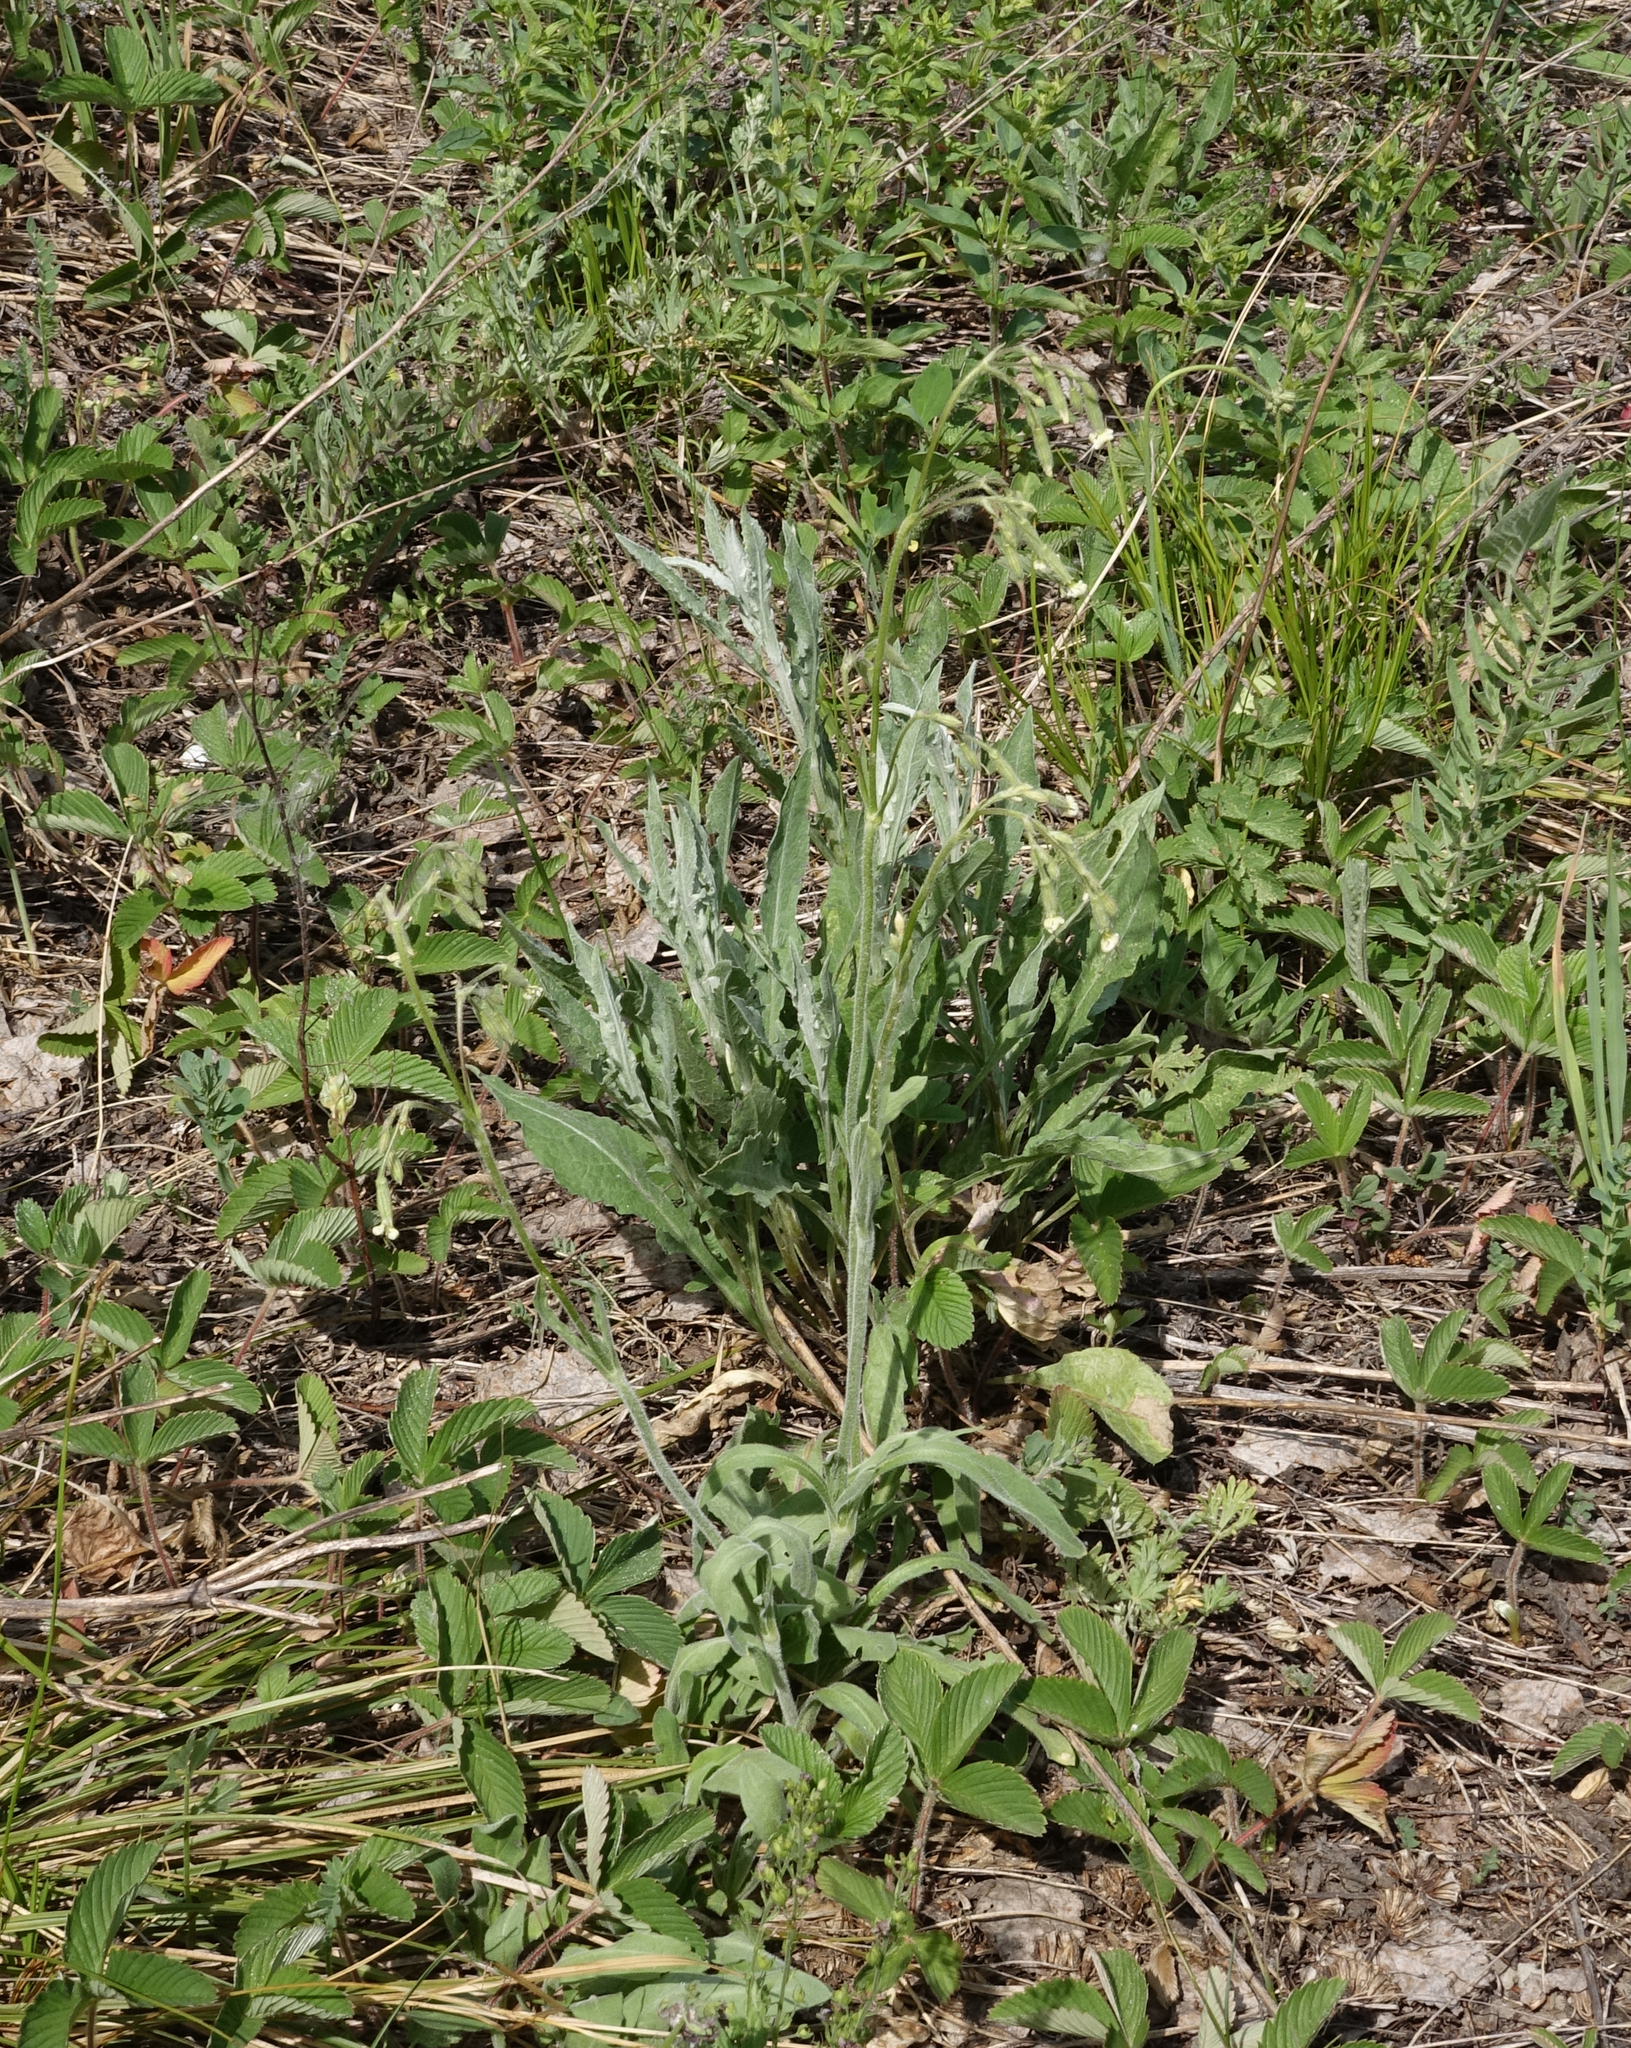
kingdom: Plantae
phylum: Tracheophyta
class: Magnoliopsida
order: Caryophyllales
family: Caryophyllaceae
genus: Silene
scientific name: Silene nutans
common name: Nottingham catchfly
